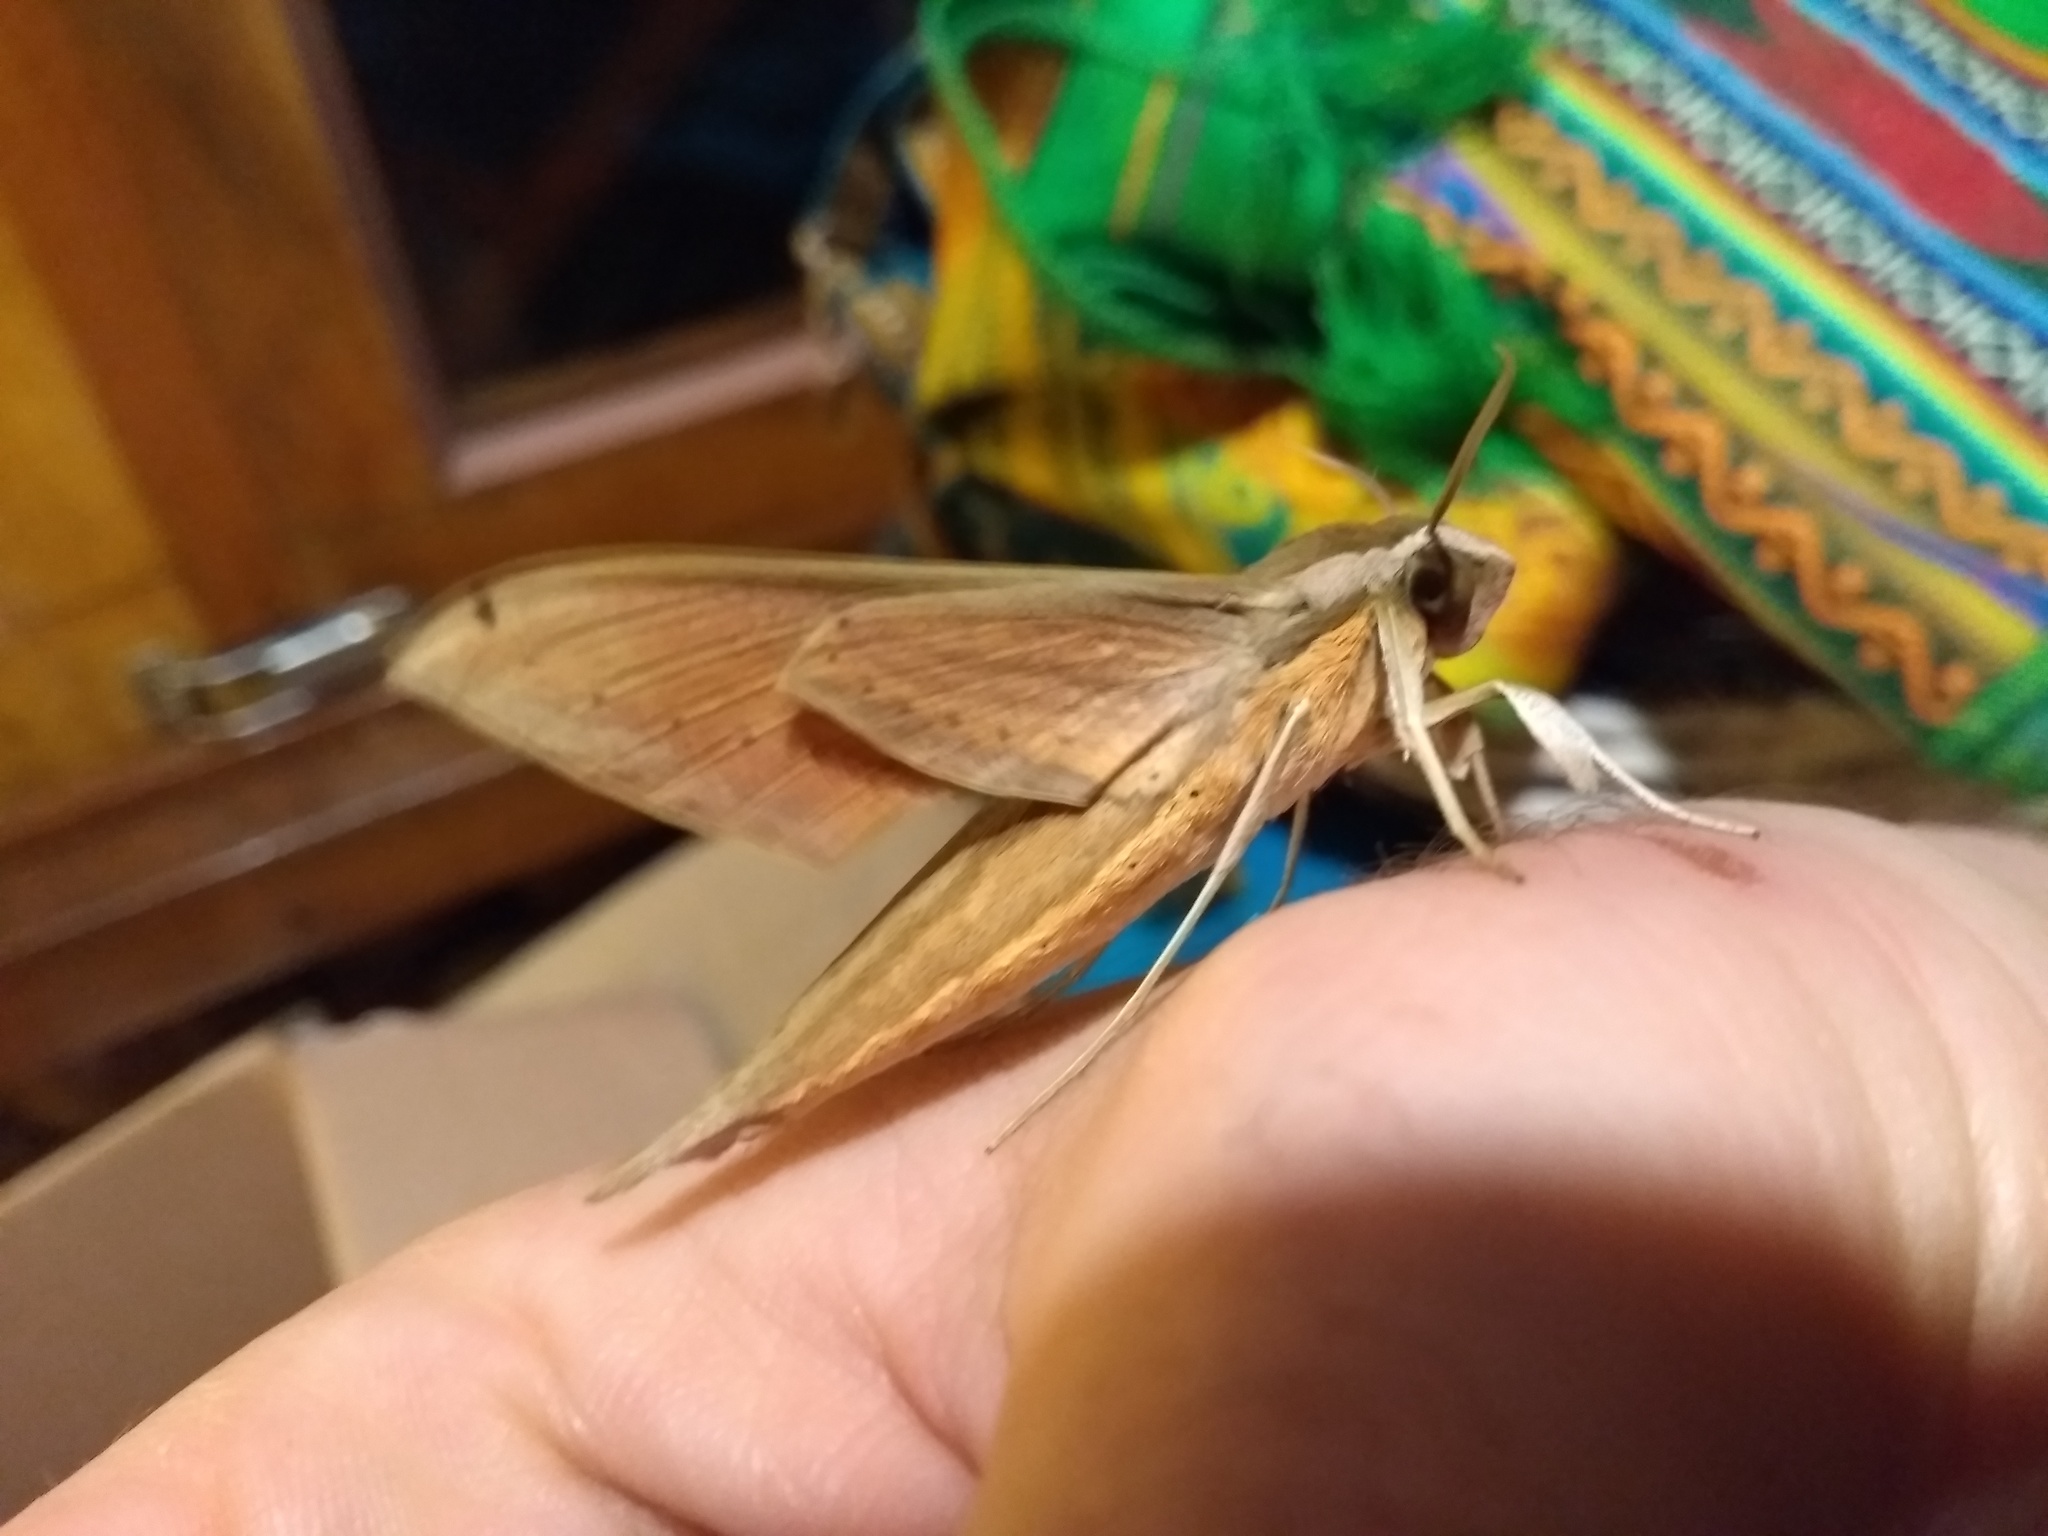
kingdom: Animalia
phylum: Arthropoda
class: Insecta
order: Lepidoptera
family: Sphingidae
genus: Xylophanes
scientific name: Xylophanes isaon
